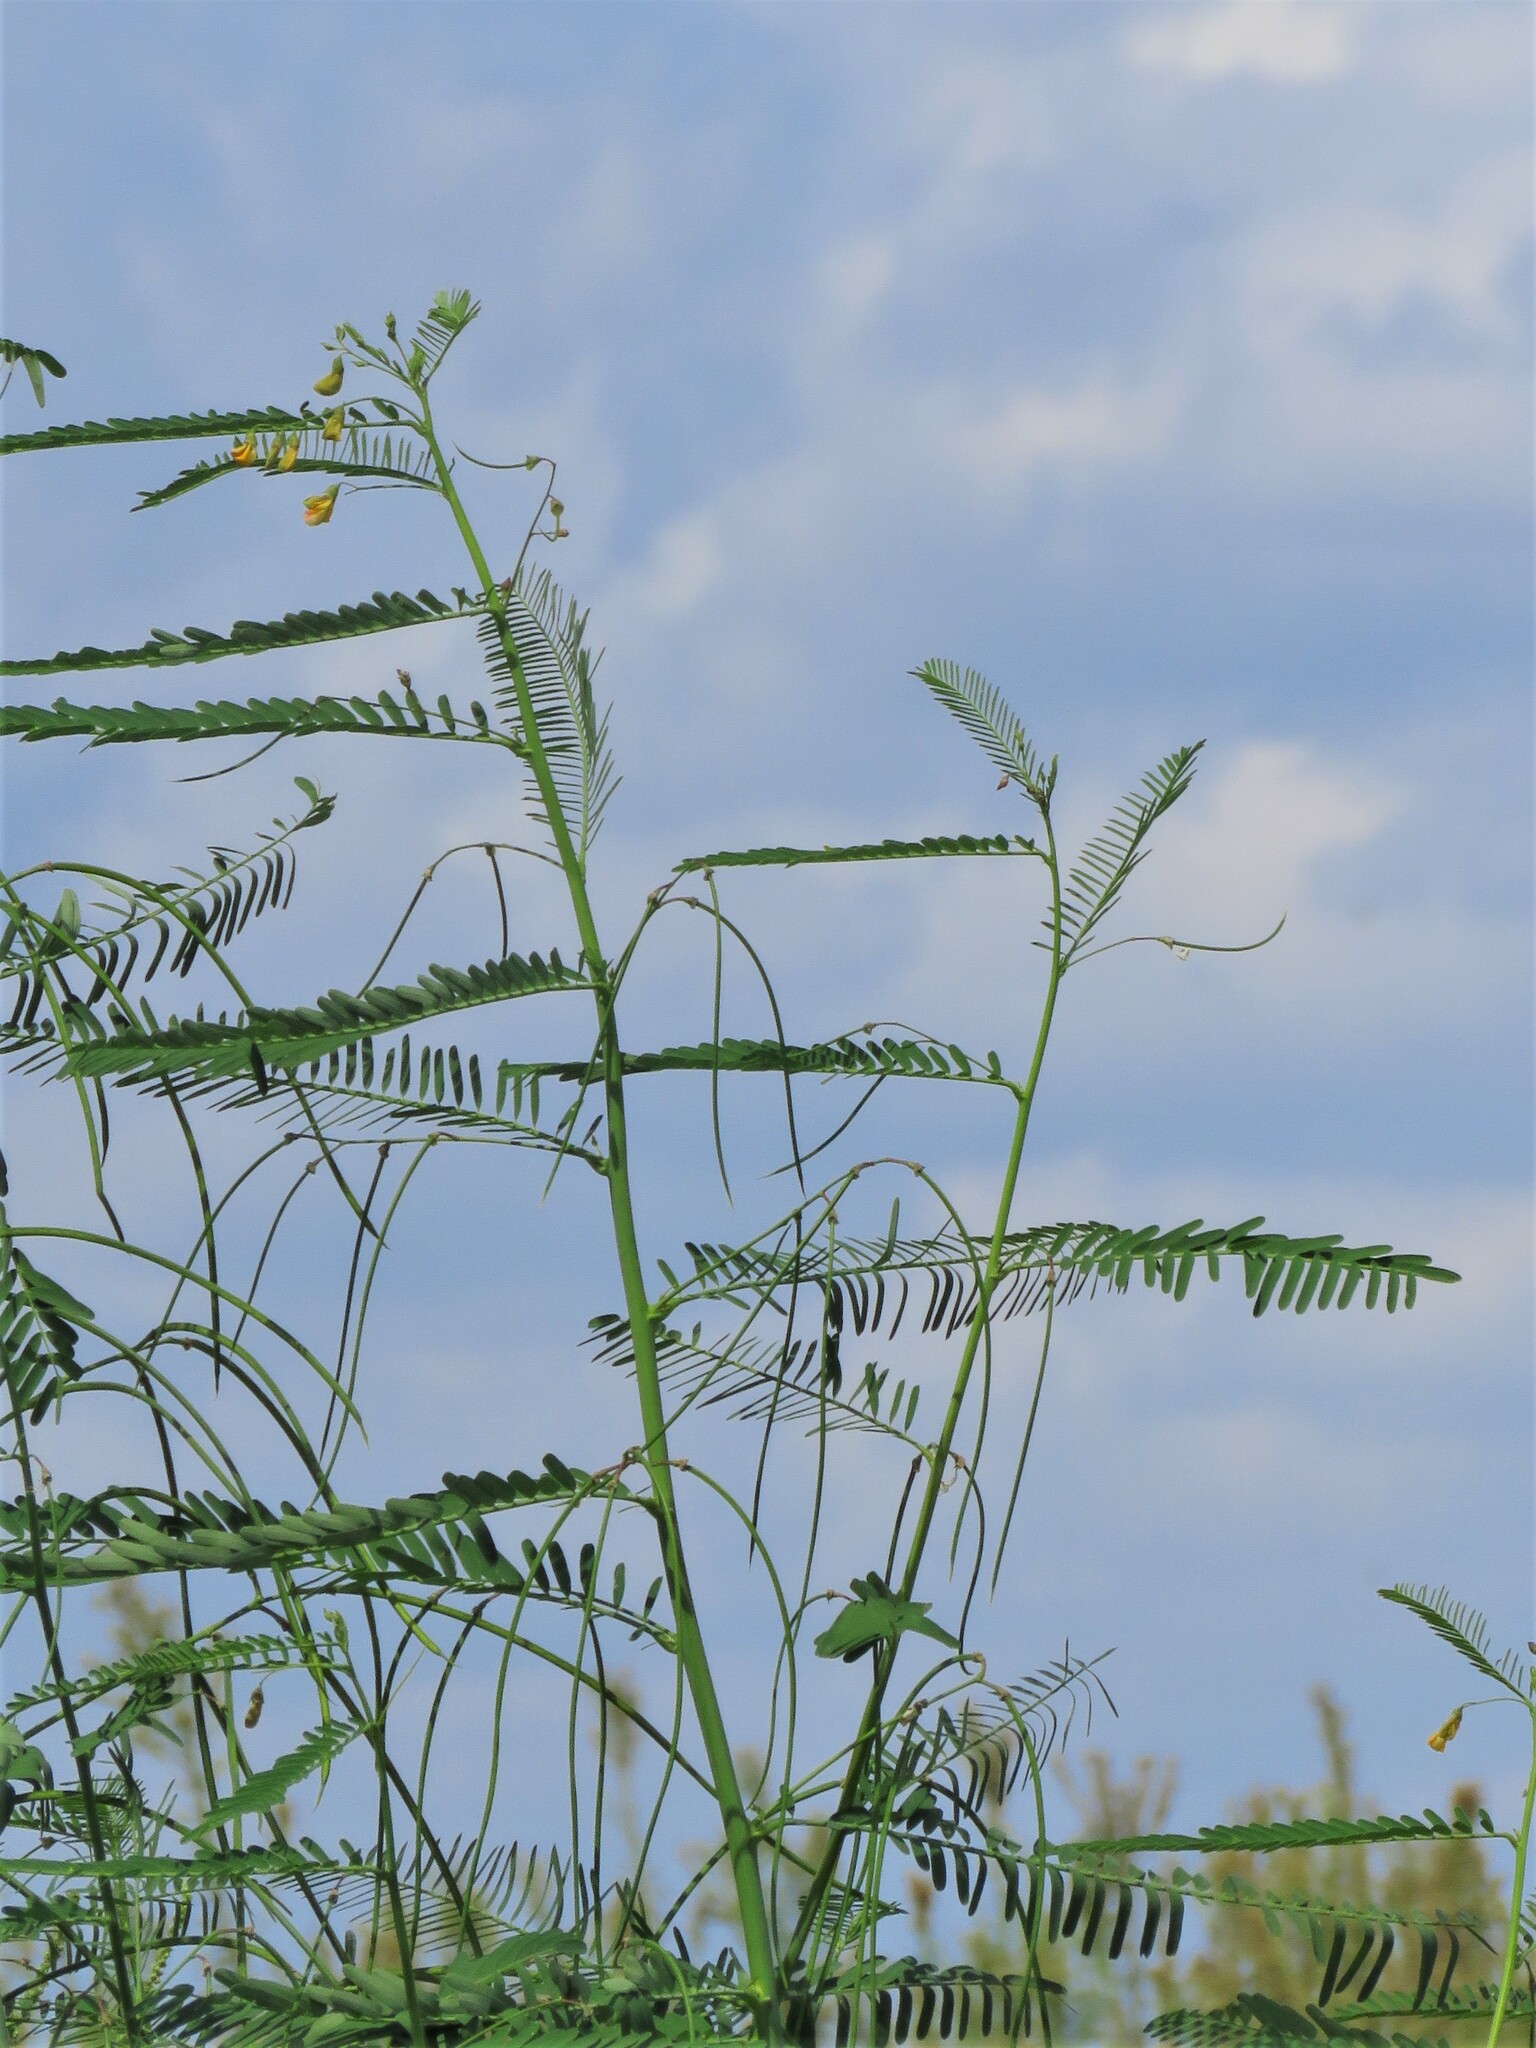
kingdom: Plantae
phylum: Tracheophyta
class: Magnoliopsida
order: Fabales
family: Fabaceae
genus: Sesbania
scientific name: Sesbania herbacea
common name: Bigpod sesbania
